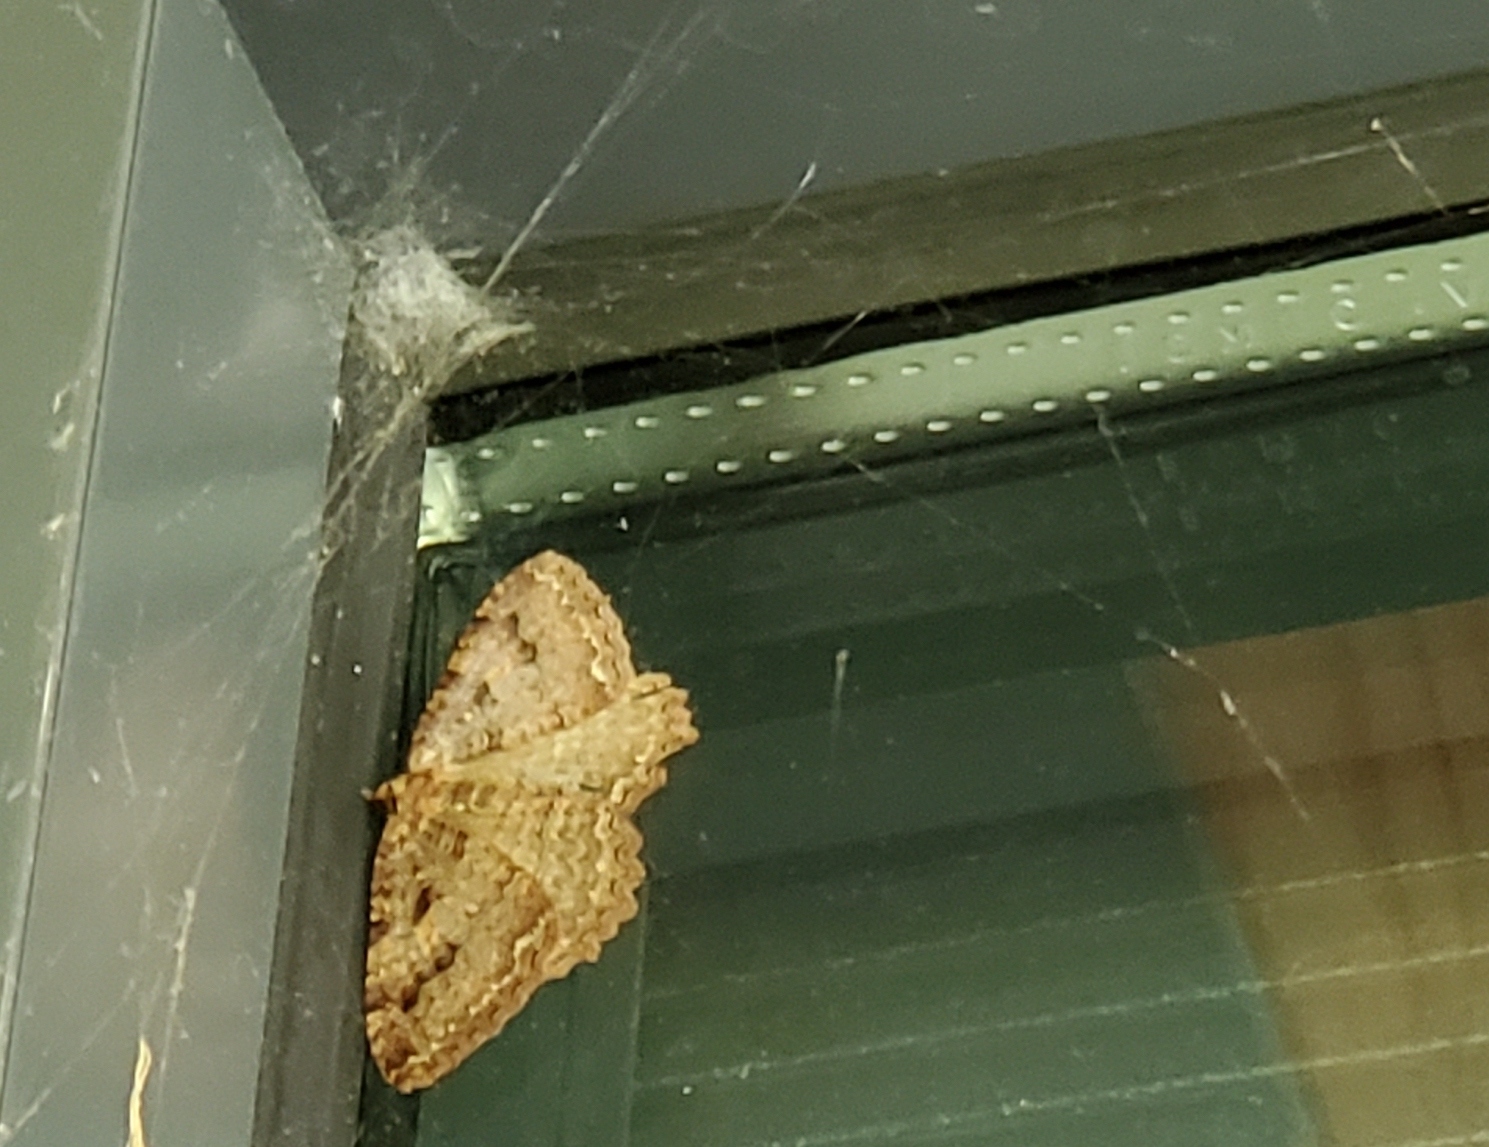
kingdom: Animalia
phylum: Arthropoda
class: Insecta
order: Lepidoptera
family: Geometridae
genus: Triphosa
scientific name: Triphosa haesitata
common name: Tissue moth
